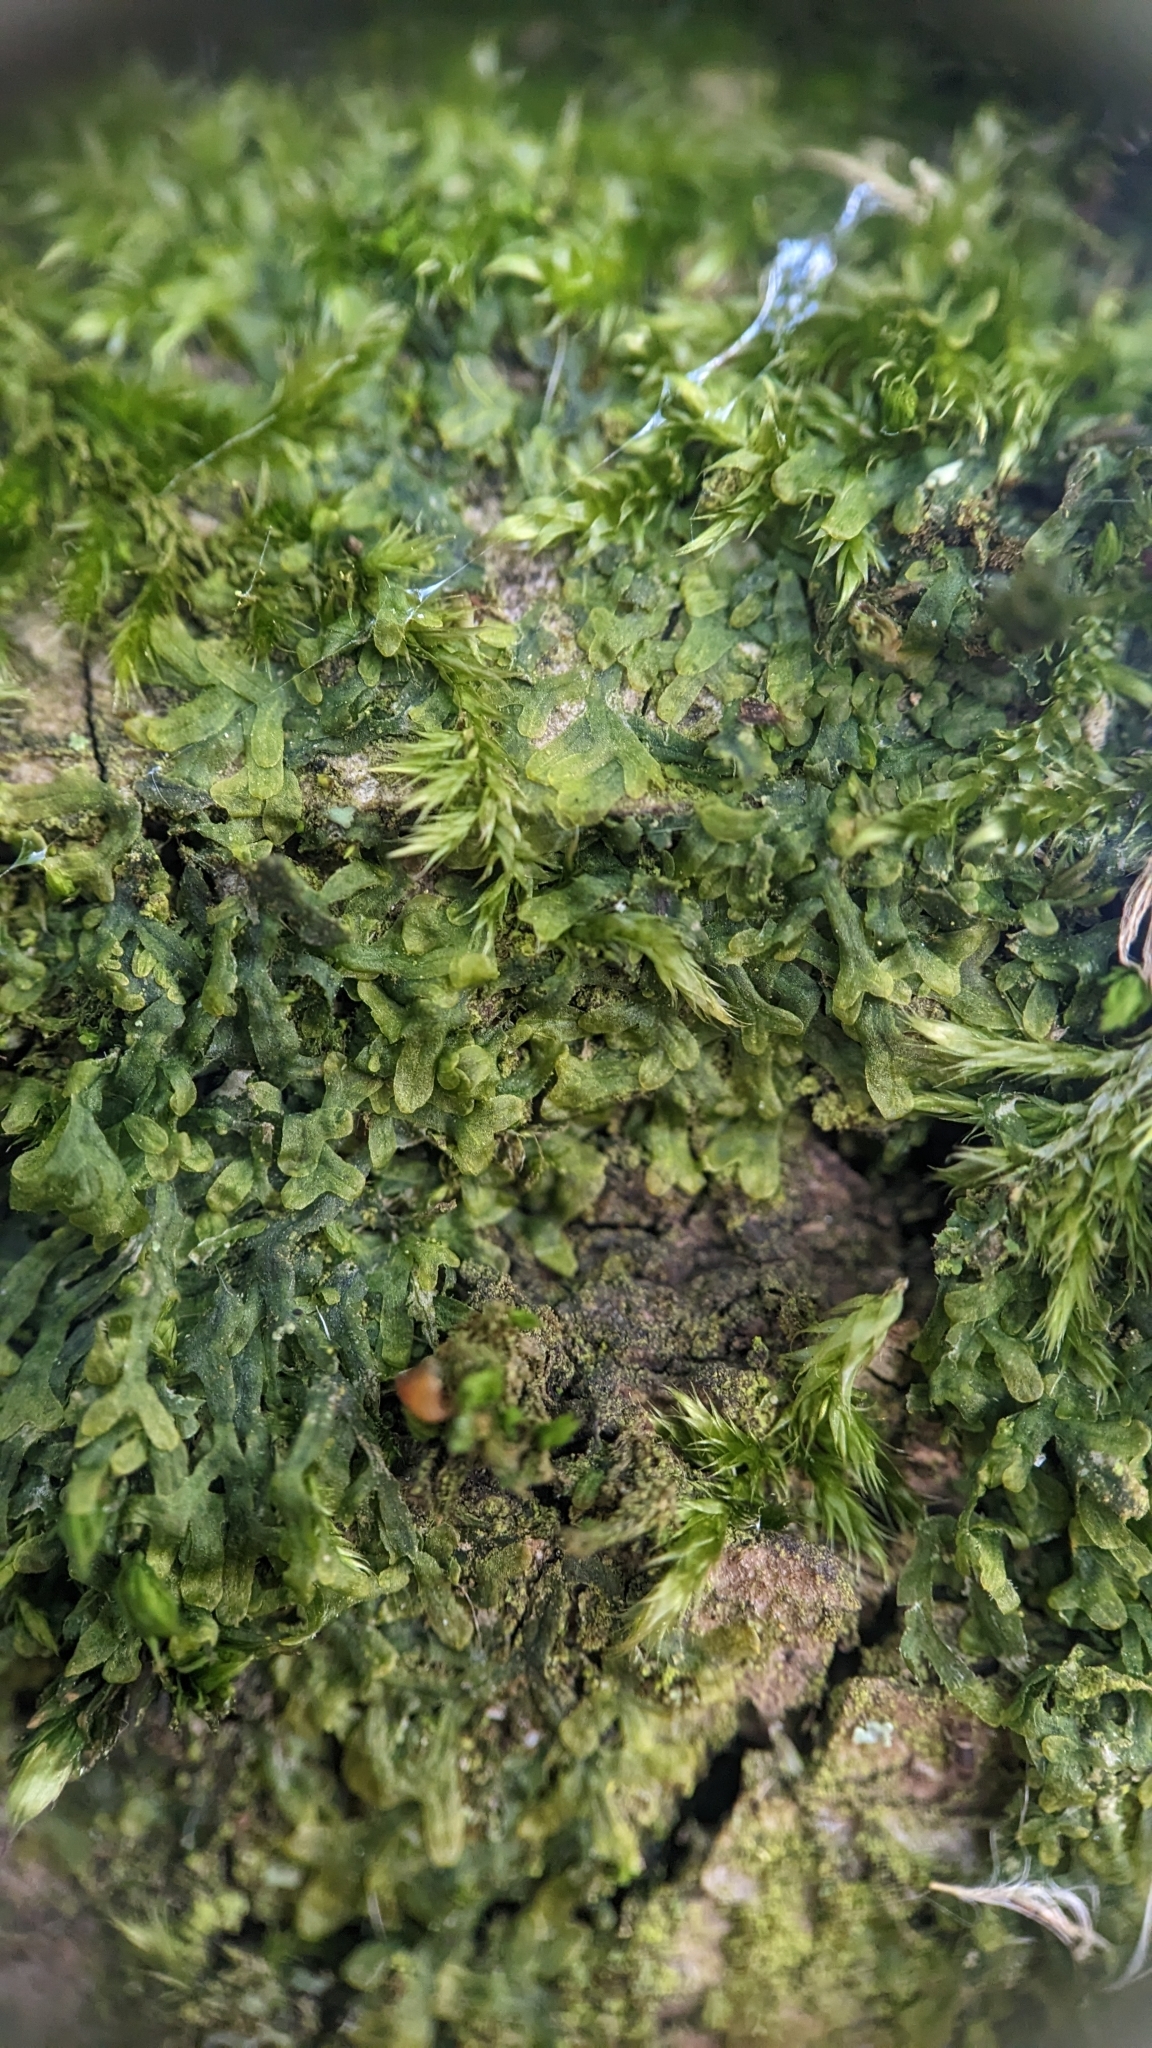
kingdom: Plantae
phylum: Marchantiophyta
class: Jungermanniopsida
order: Metzgeriales
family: Metzgeriaceae
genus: Metzgeria
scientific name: Metzgeria furcata
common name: Forked veilwort
